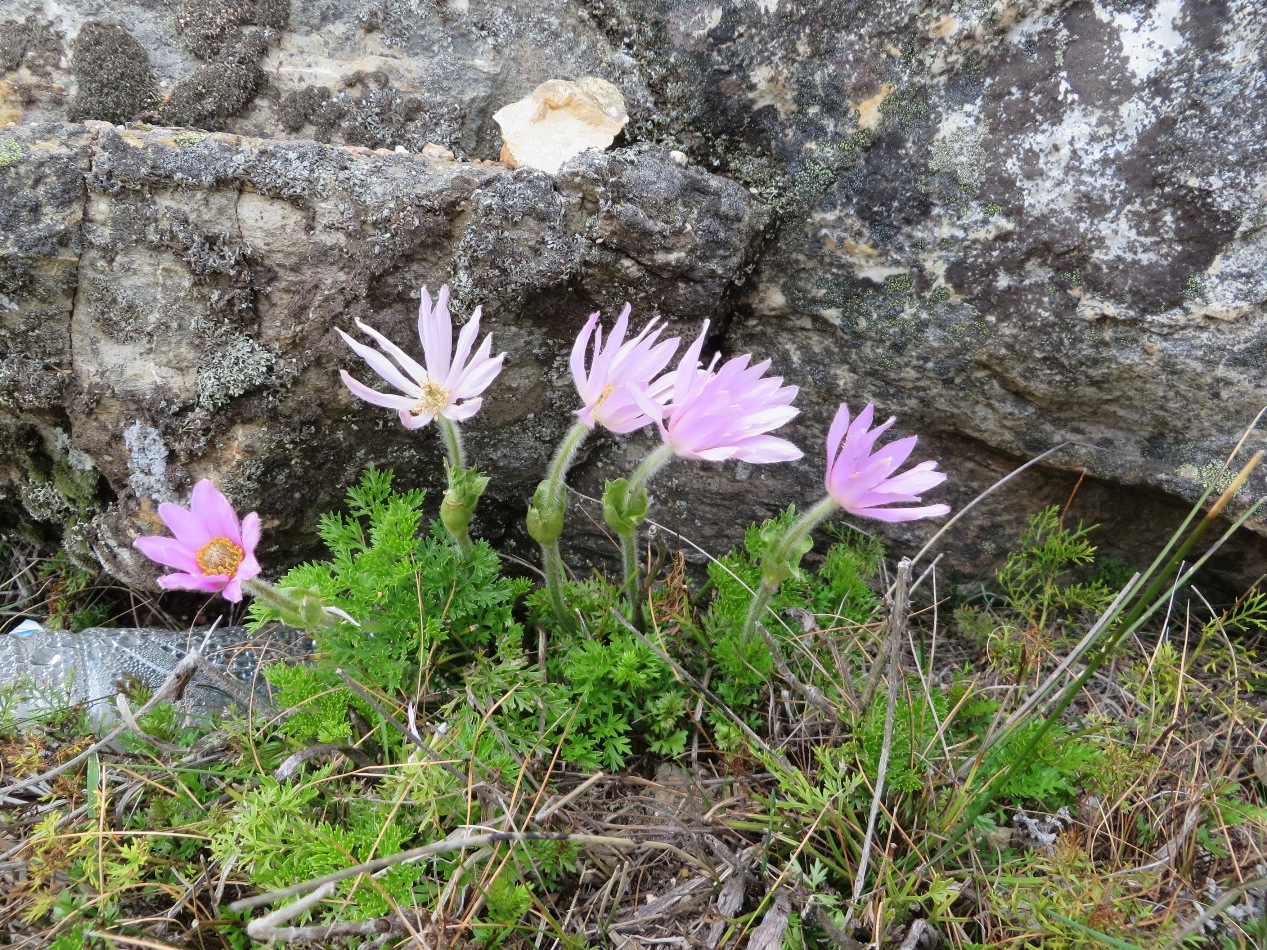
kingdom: Plantae
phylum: Tracheophyta
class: Magnoliopsida
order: Ranunculales
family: Ranunculaceae
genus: Knowltonia
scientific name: Knowltonia tenuifolia
